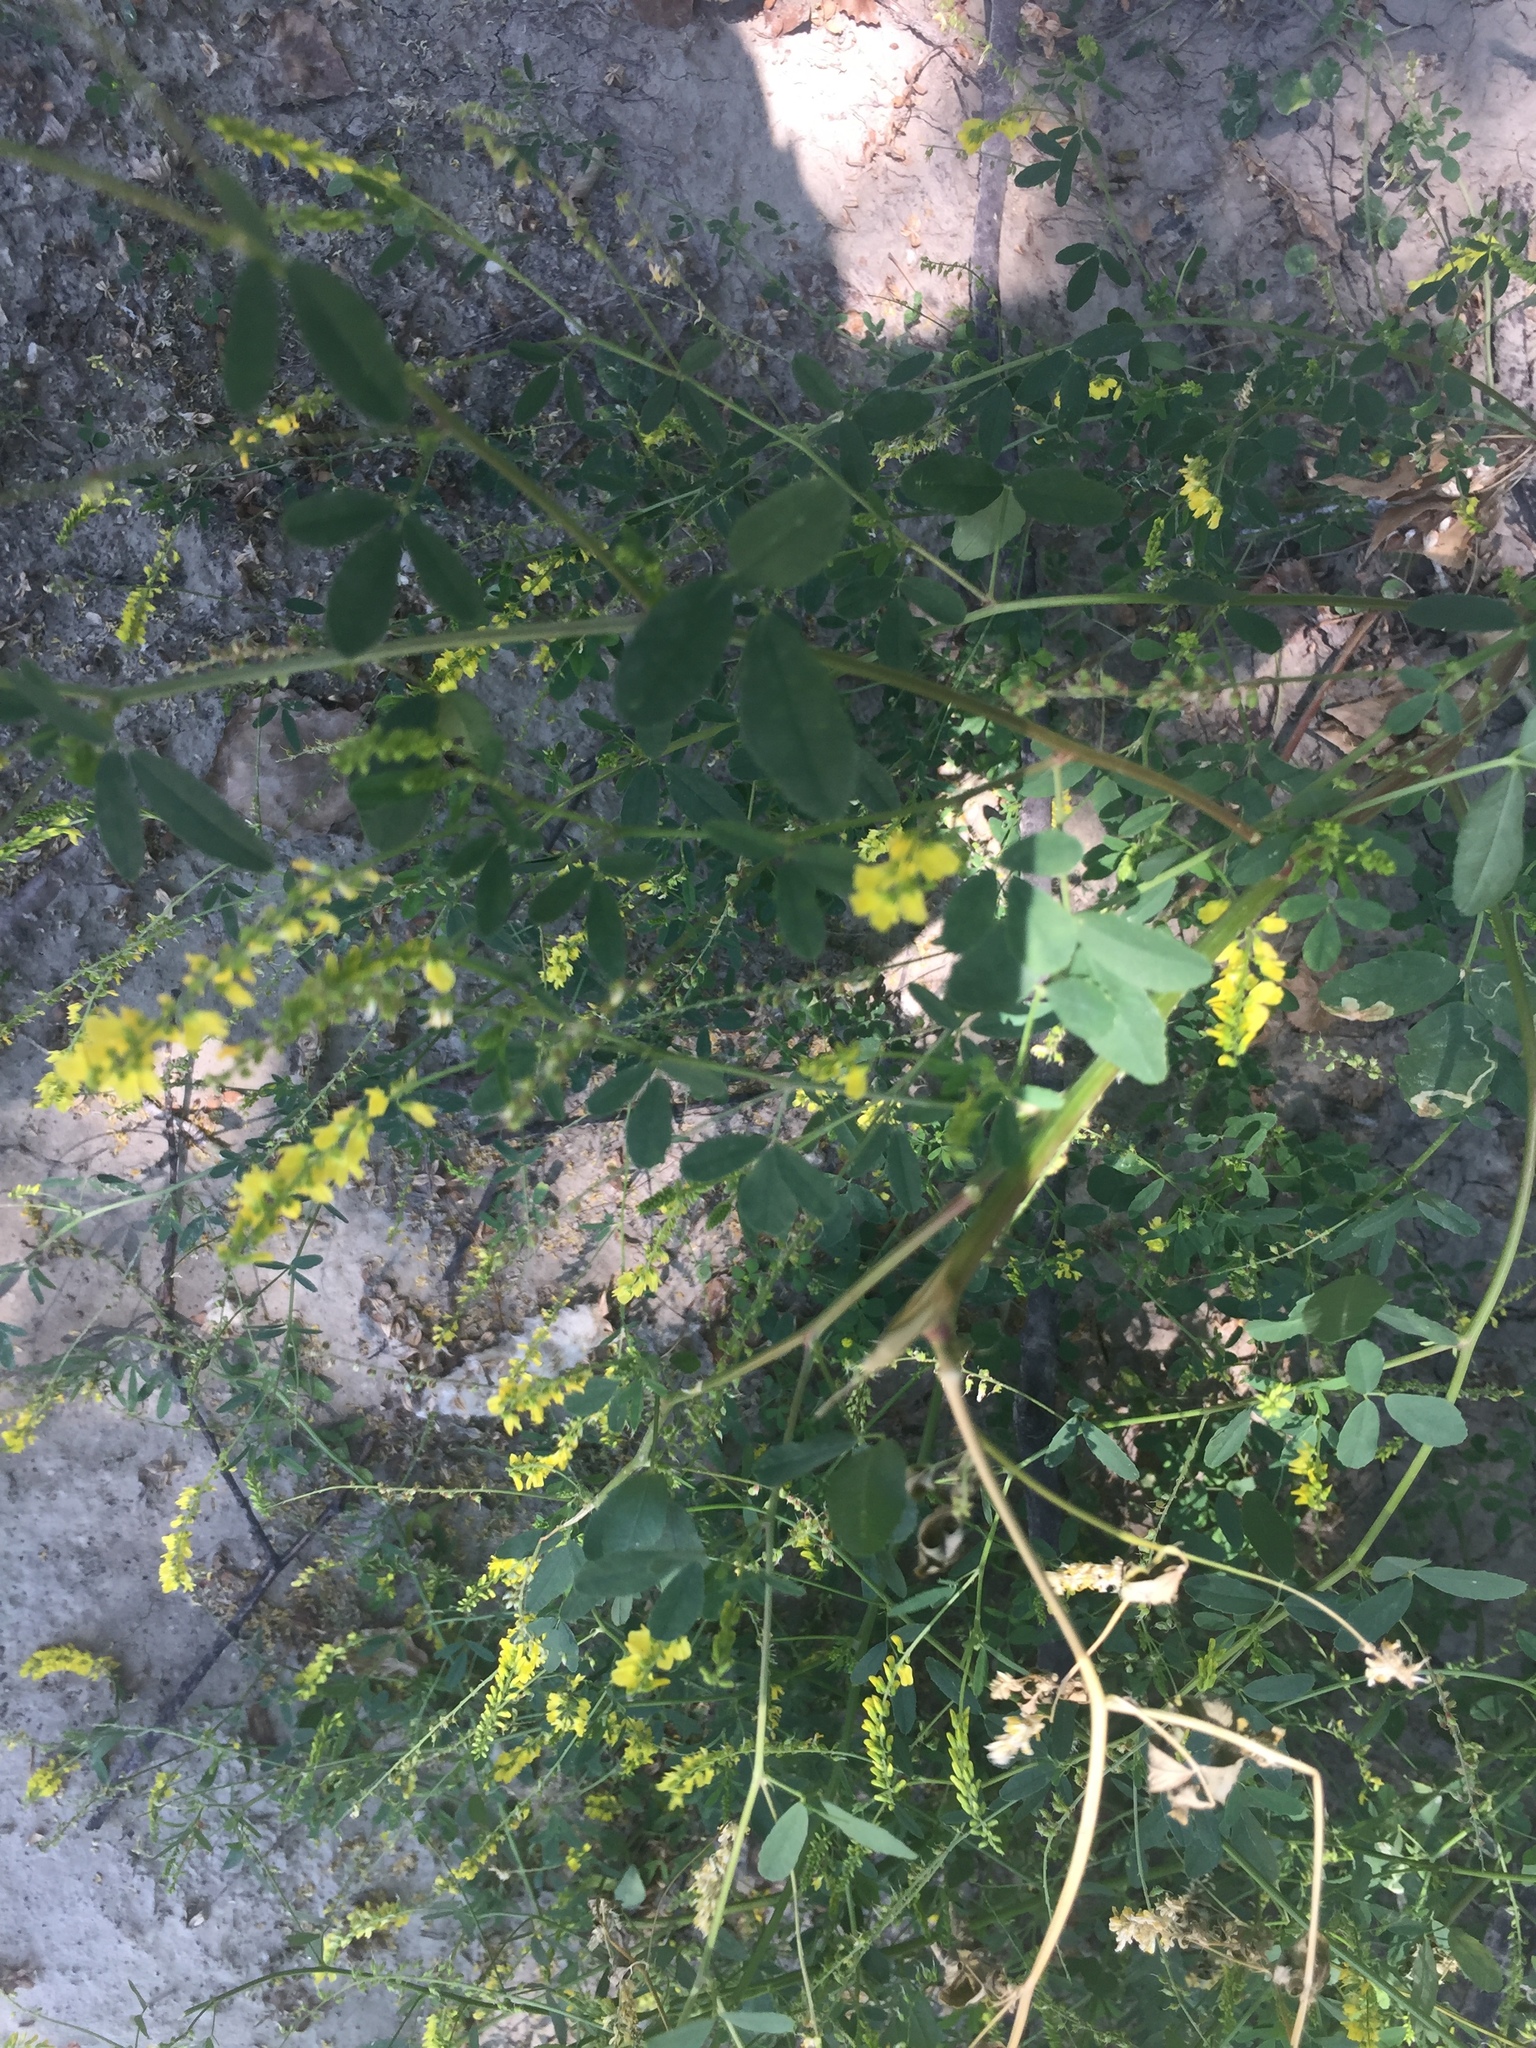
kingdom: Plantae
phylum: Tracheophyta
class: Magnoliopsida
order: Fabales
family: Fabaceae
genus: Melilotus
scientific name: Melilotus officinalis
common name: Sweetclover
